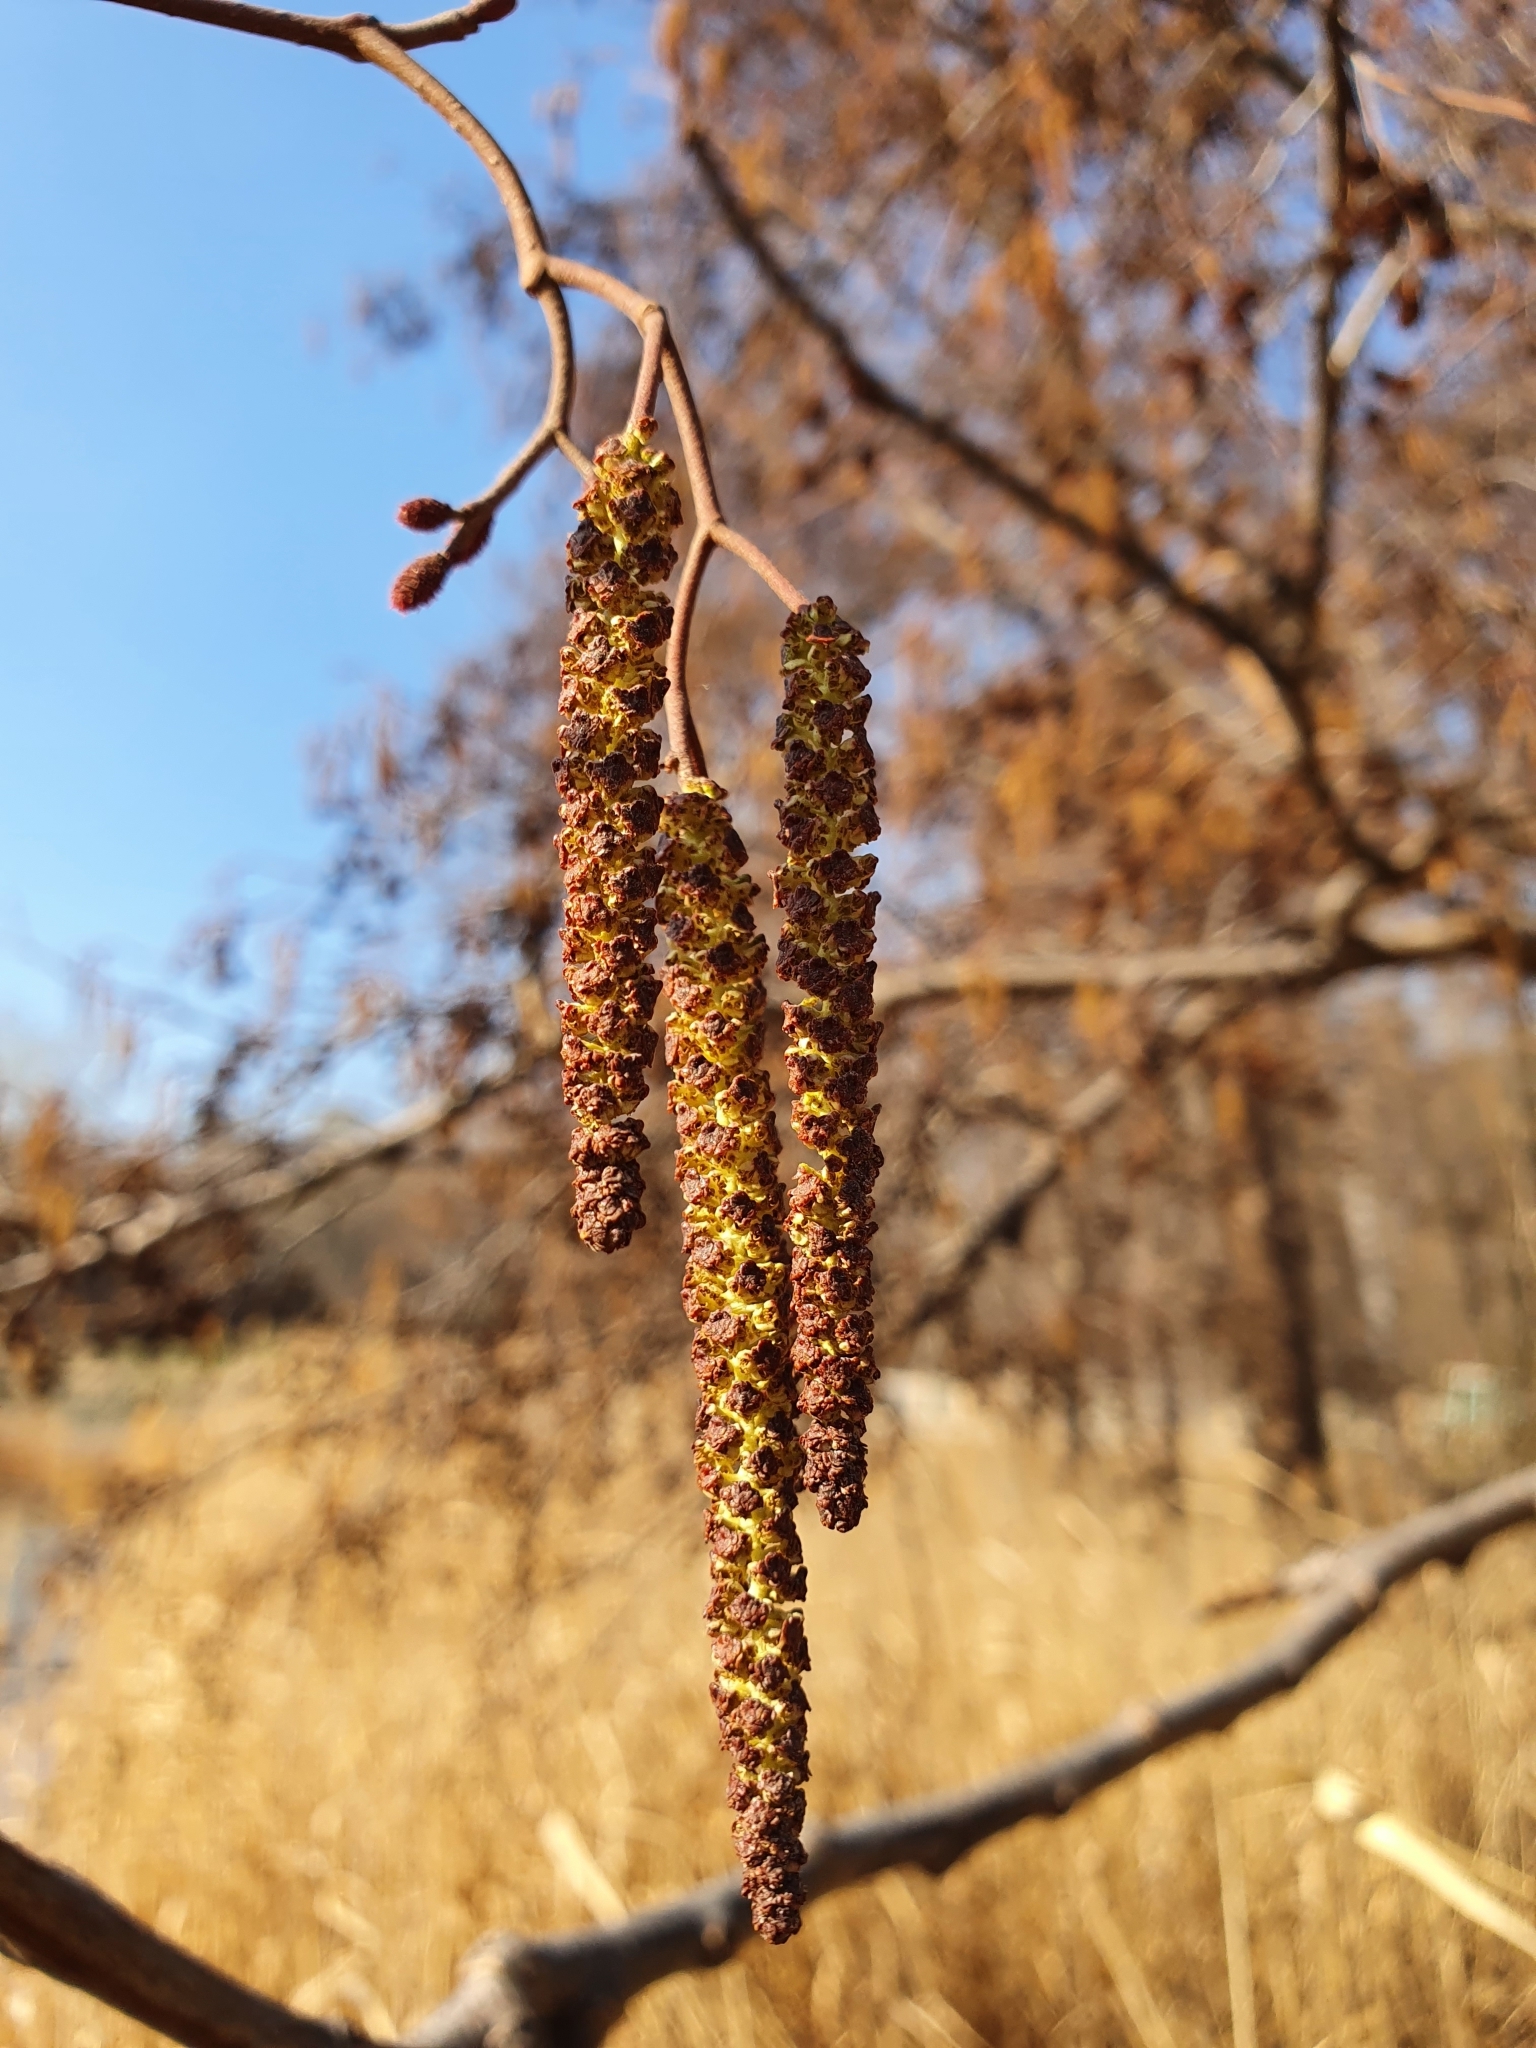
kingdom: Plantae
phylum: Tracheophyta
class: Magnoliopsida
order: Fagales
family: Betulaceae
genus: Alnus
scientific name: Alnus glutinosa
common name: Black alder
